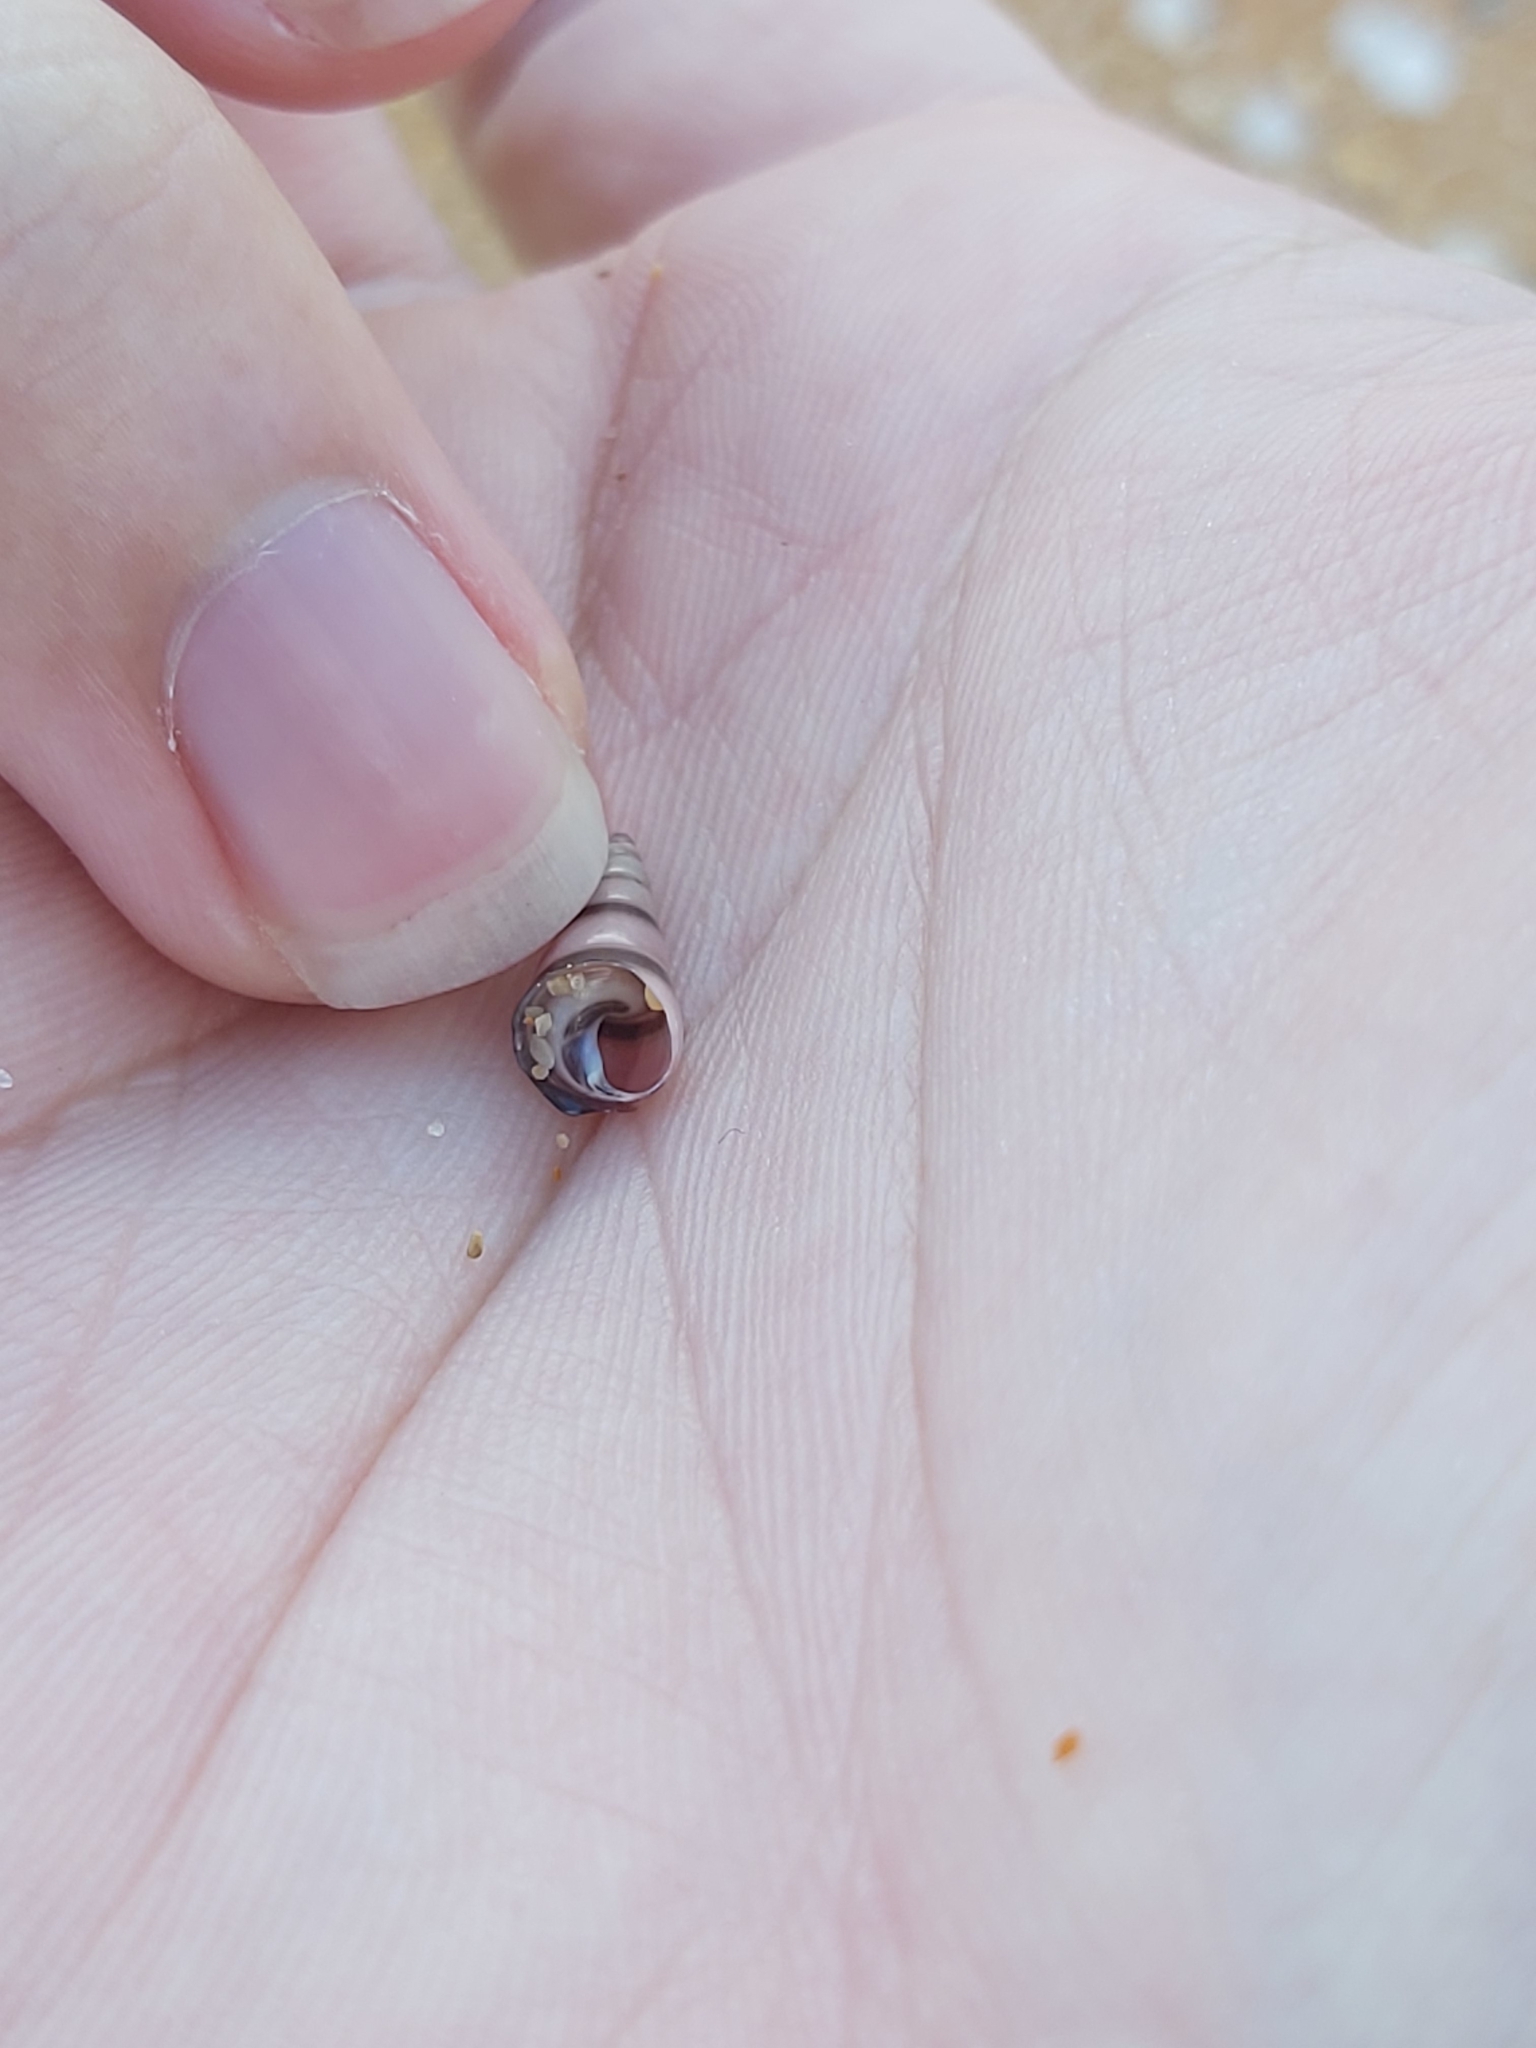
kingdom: Animalia
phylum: Mollusca
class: Gastropoda
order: Trochida
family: Trochidae
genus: Bankivia
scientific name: Bankivia fasciata
